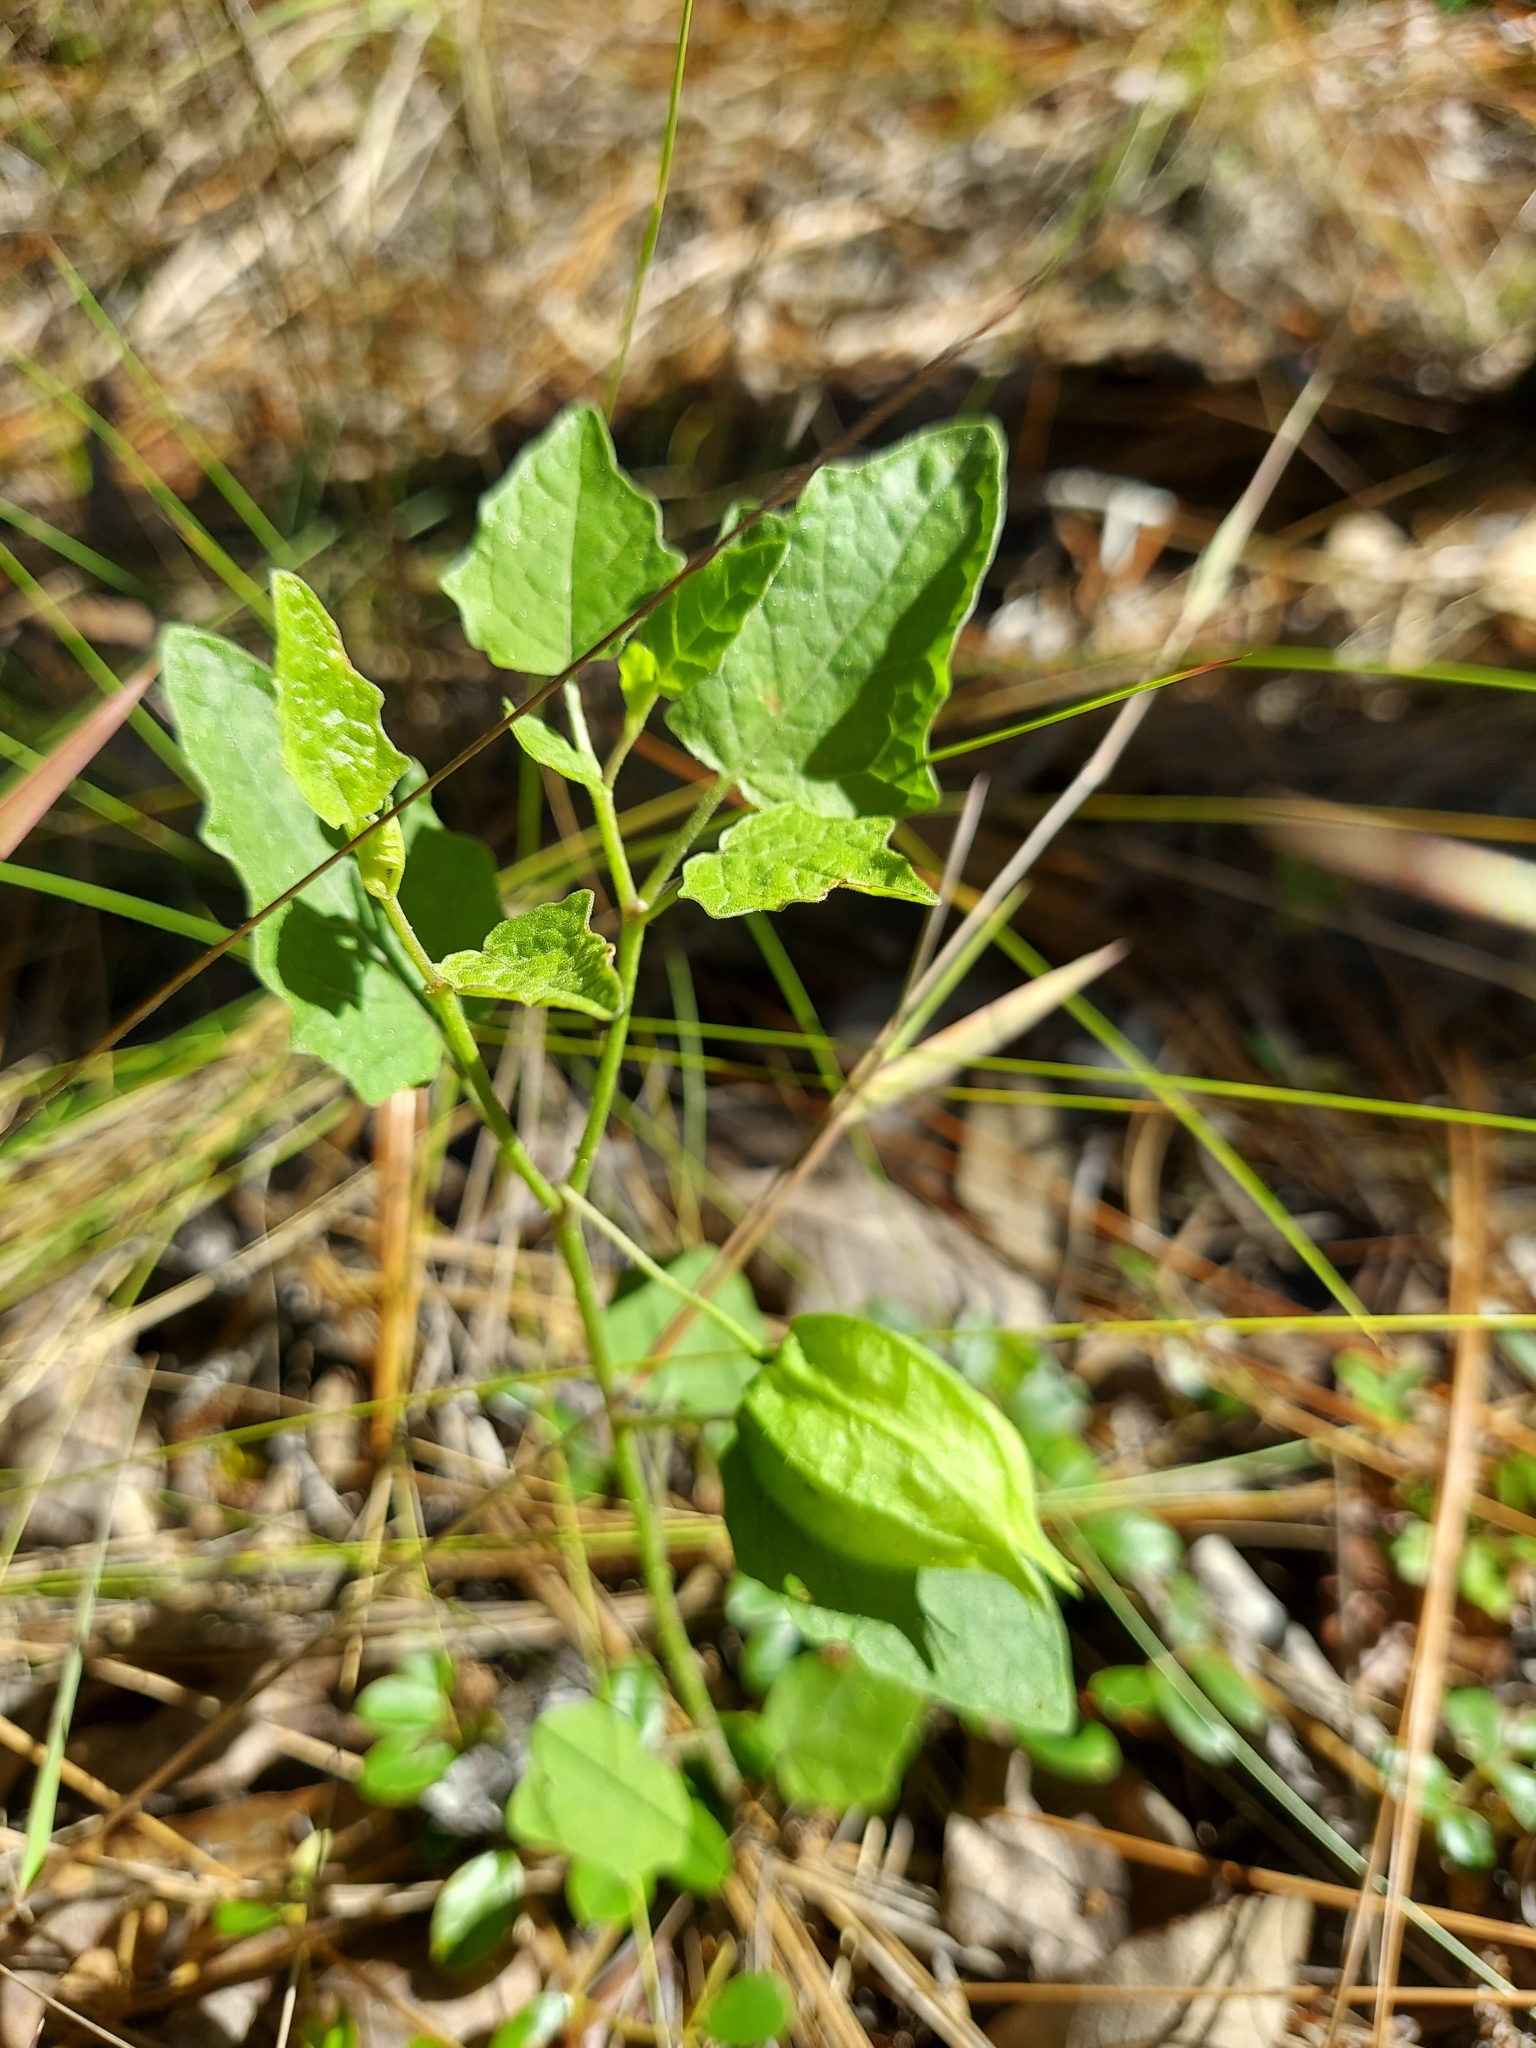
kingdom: Plantae
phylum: Tracheophyta
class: Magnoliopsida
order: Solanales
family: Solanaceae
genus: Physalis
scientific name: Physalis arenicola
